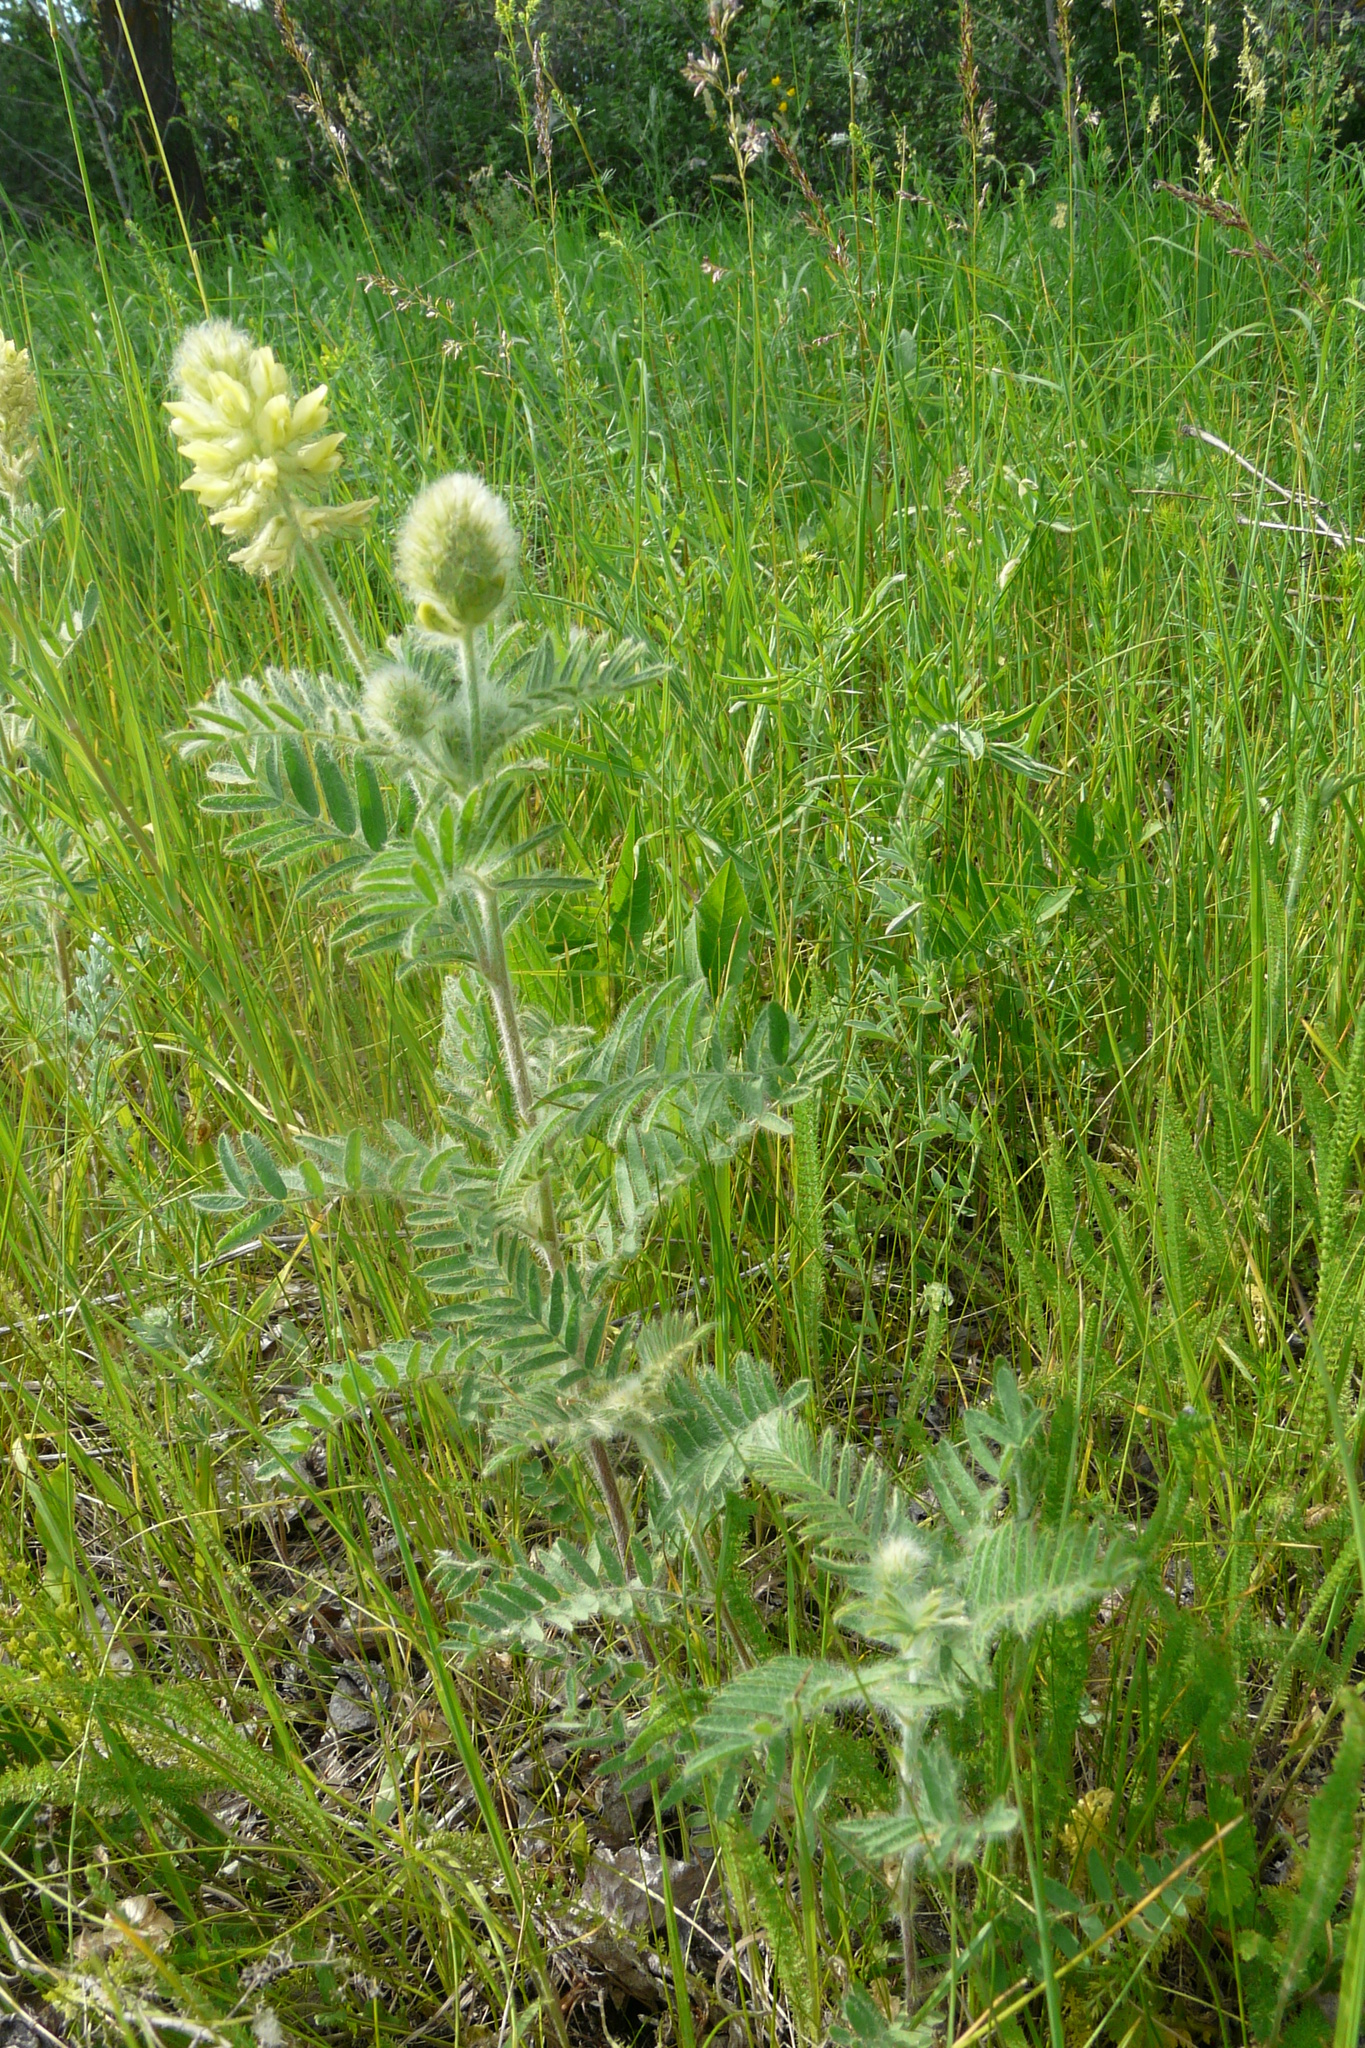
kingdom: Plantae
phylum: Tracheophyta
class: Magnoliopsida
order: Fabales
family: Fabaceae
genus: Oxytropis
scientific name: Oxytropis pilosa
